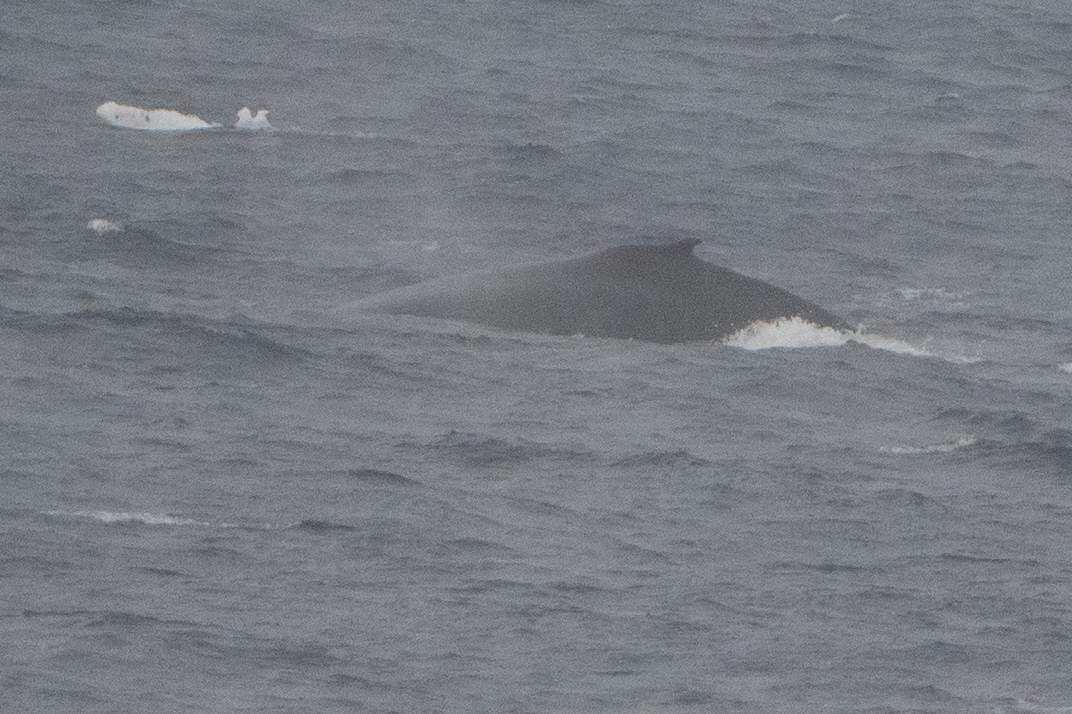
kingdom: Animalia
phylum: Chordata
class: Mammalia
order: Cetacea
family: Balaenopteridae
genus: Megaptera
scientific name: Megaptera novaeangliae
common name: Humpback whale
